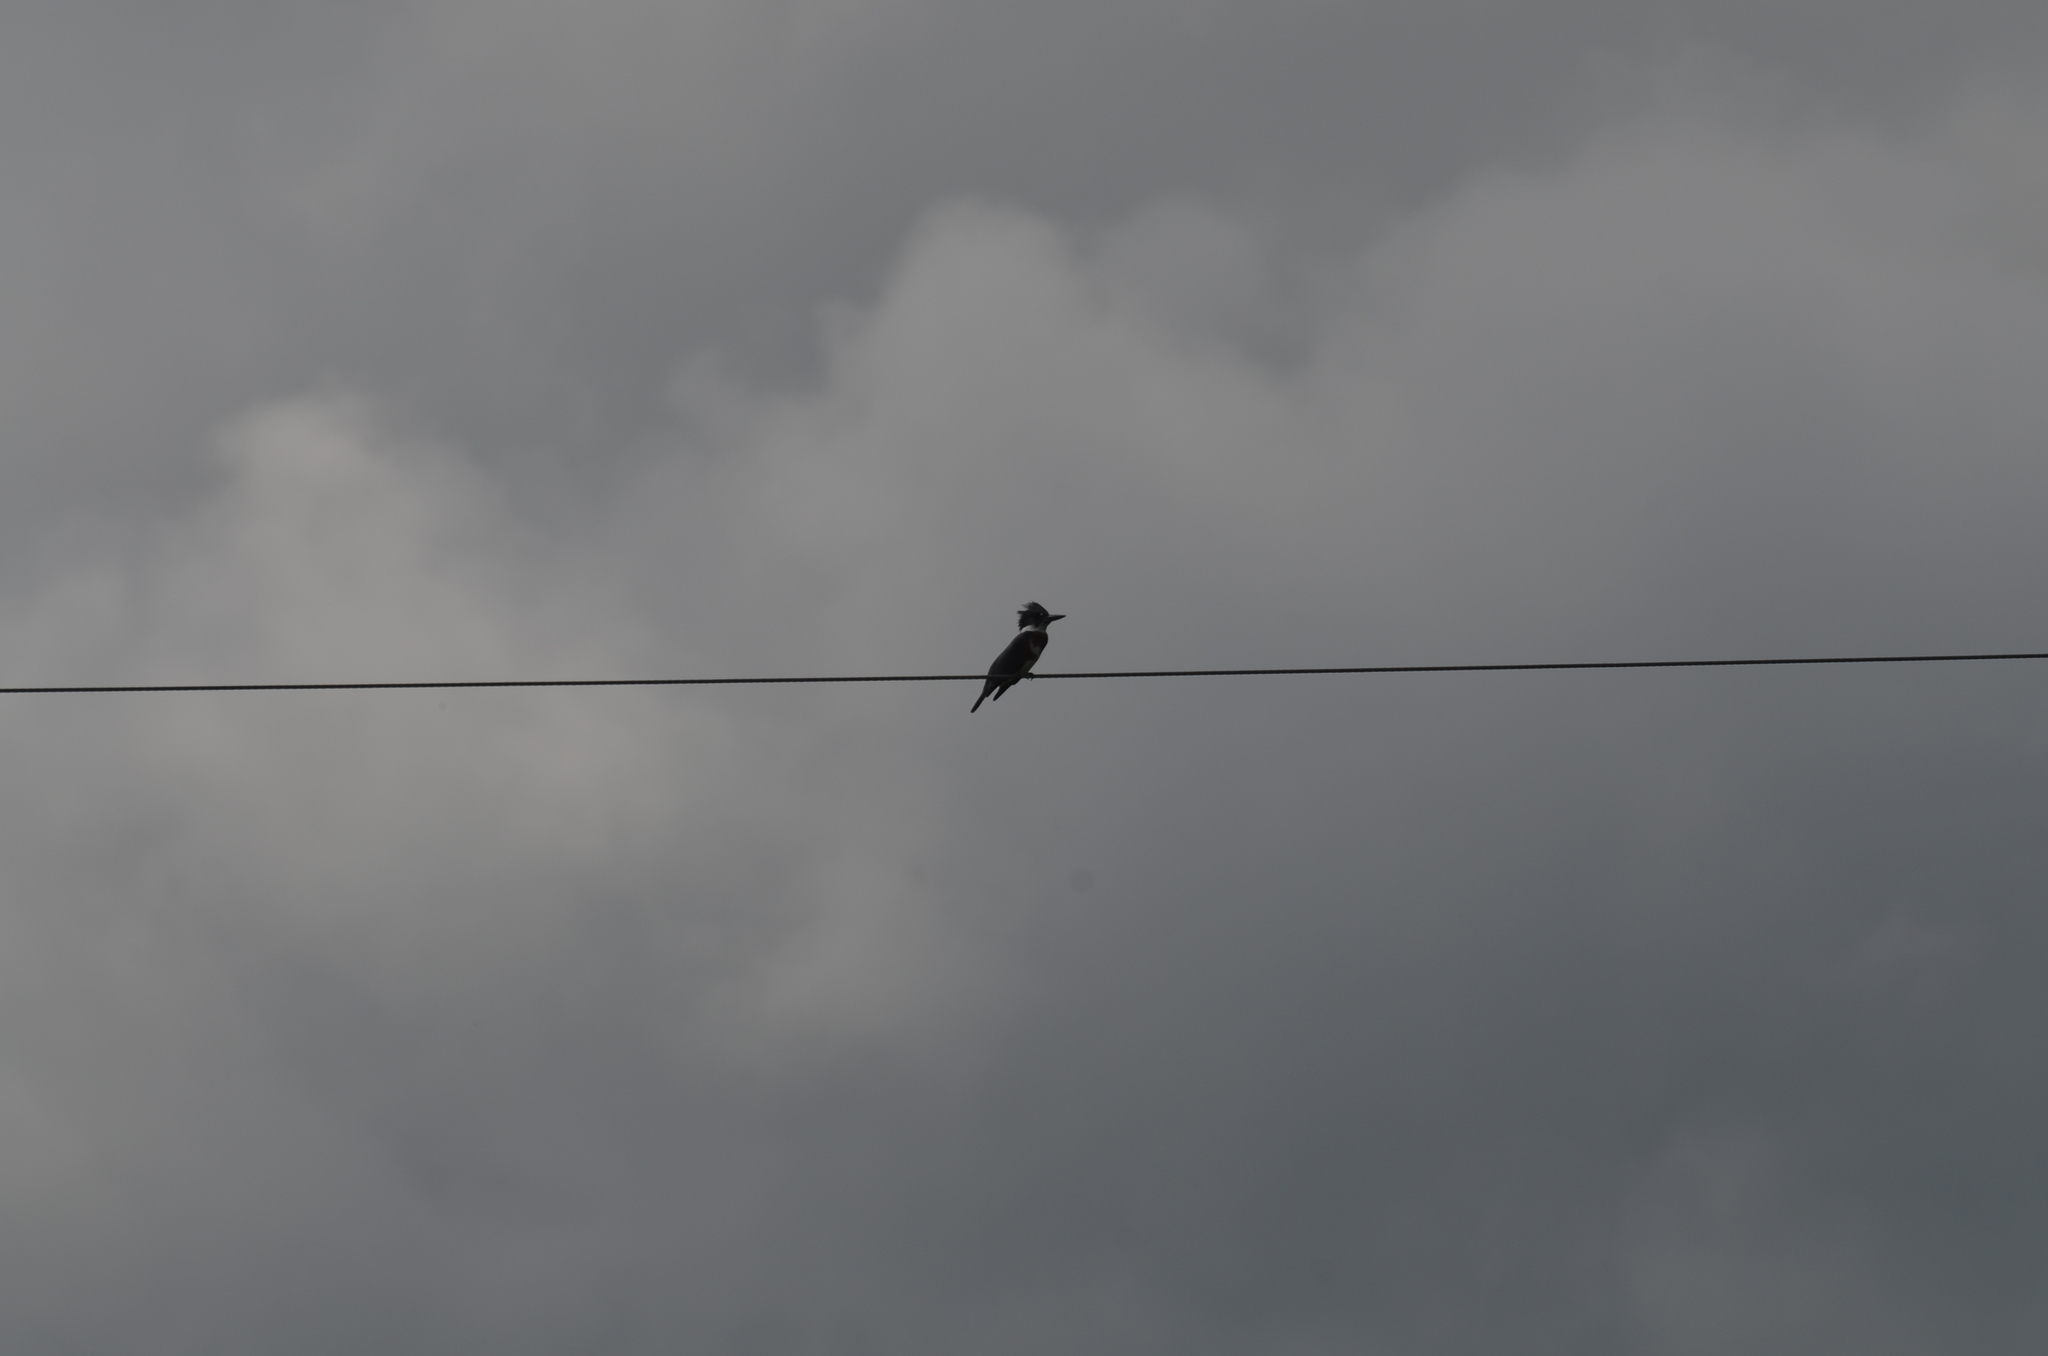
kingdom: Animalia
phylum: Chordata
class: Aves
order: Coraciiformes
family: Alcedinidae
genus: Megaceryle
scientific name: Megaceryle alcyon
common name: Belted kingfisher
